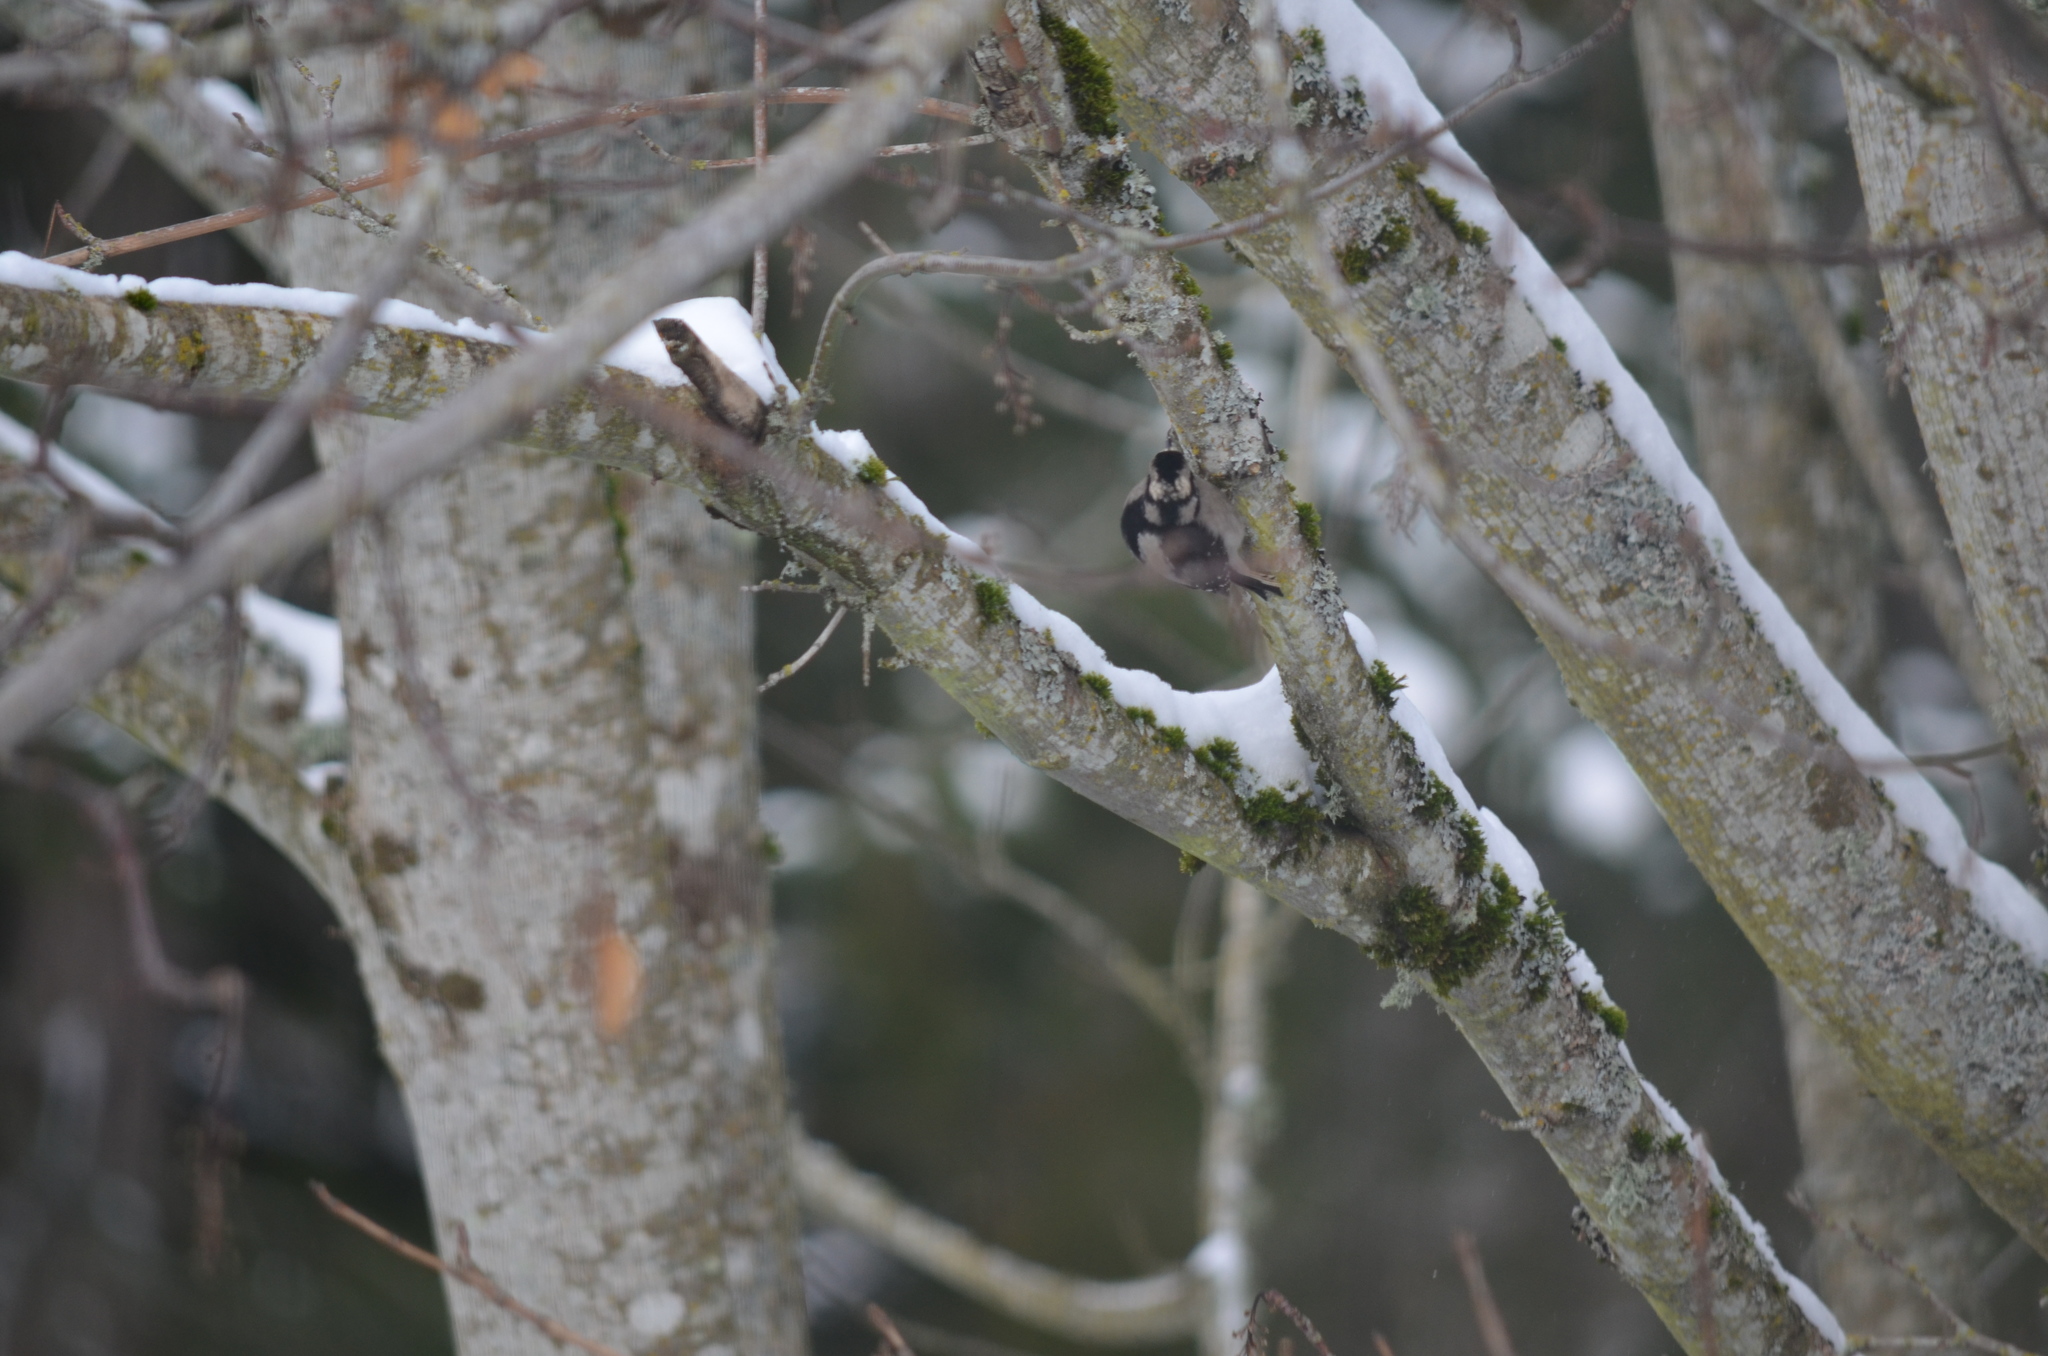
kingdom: Animalia
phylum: Chordata
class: Aves
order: Piciformes
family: Picidae
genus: Dryobates
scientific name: Dryobates pubescens
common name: Downy woodpecker
